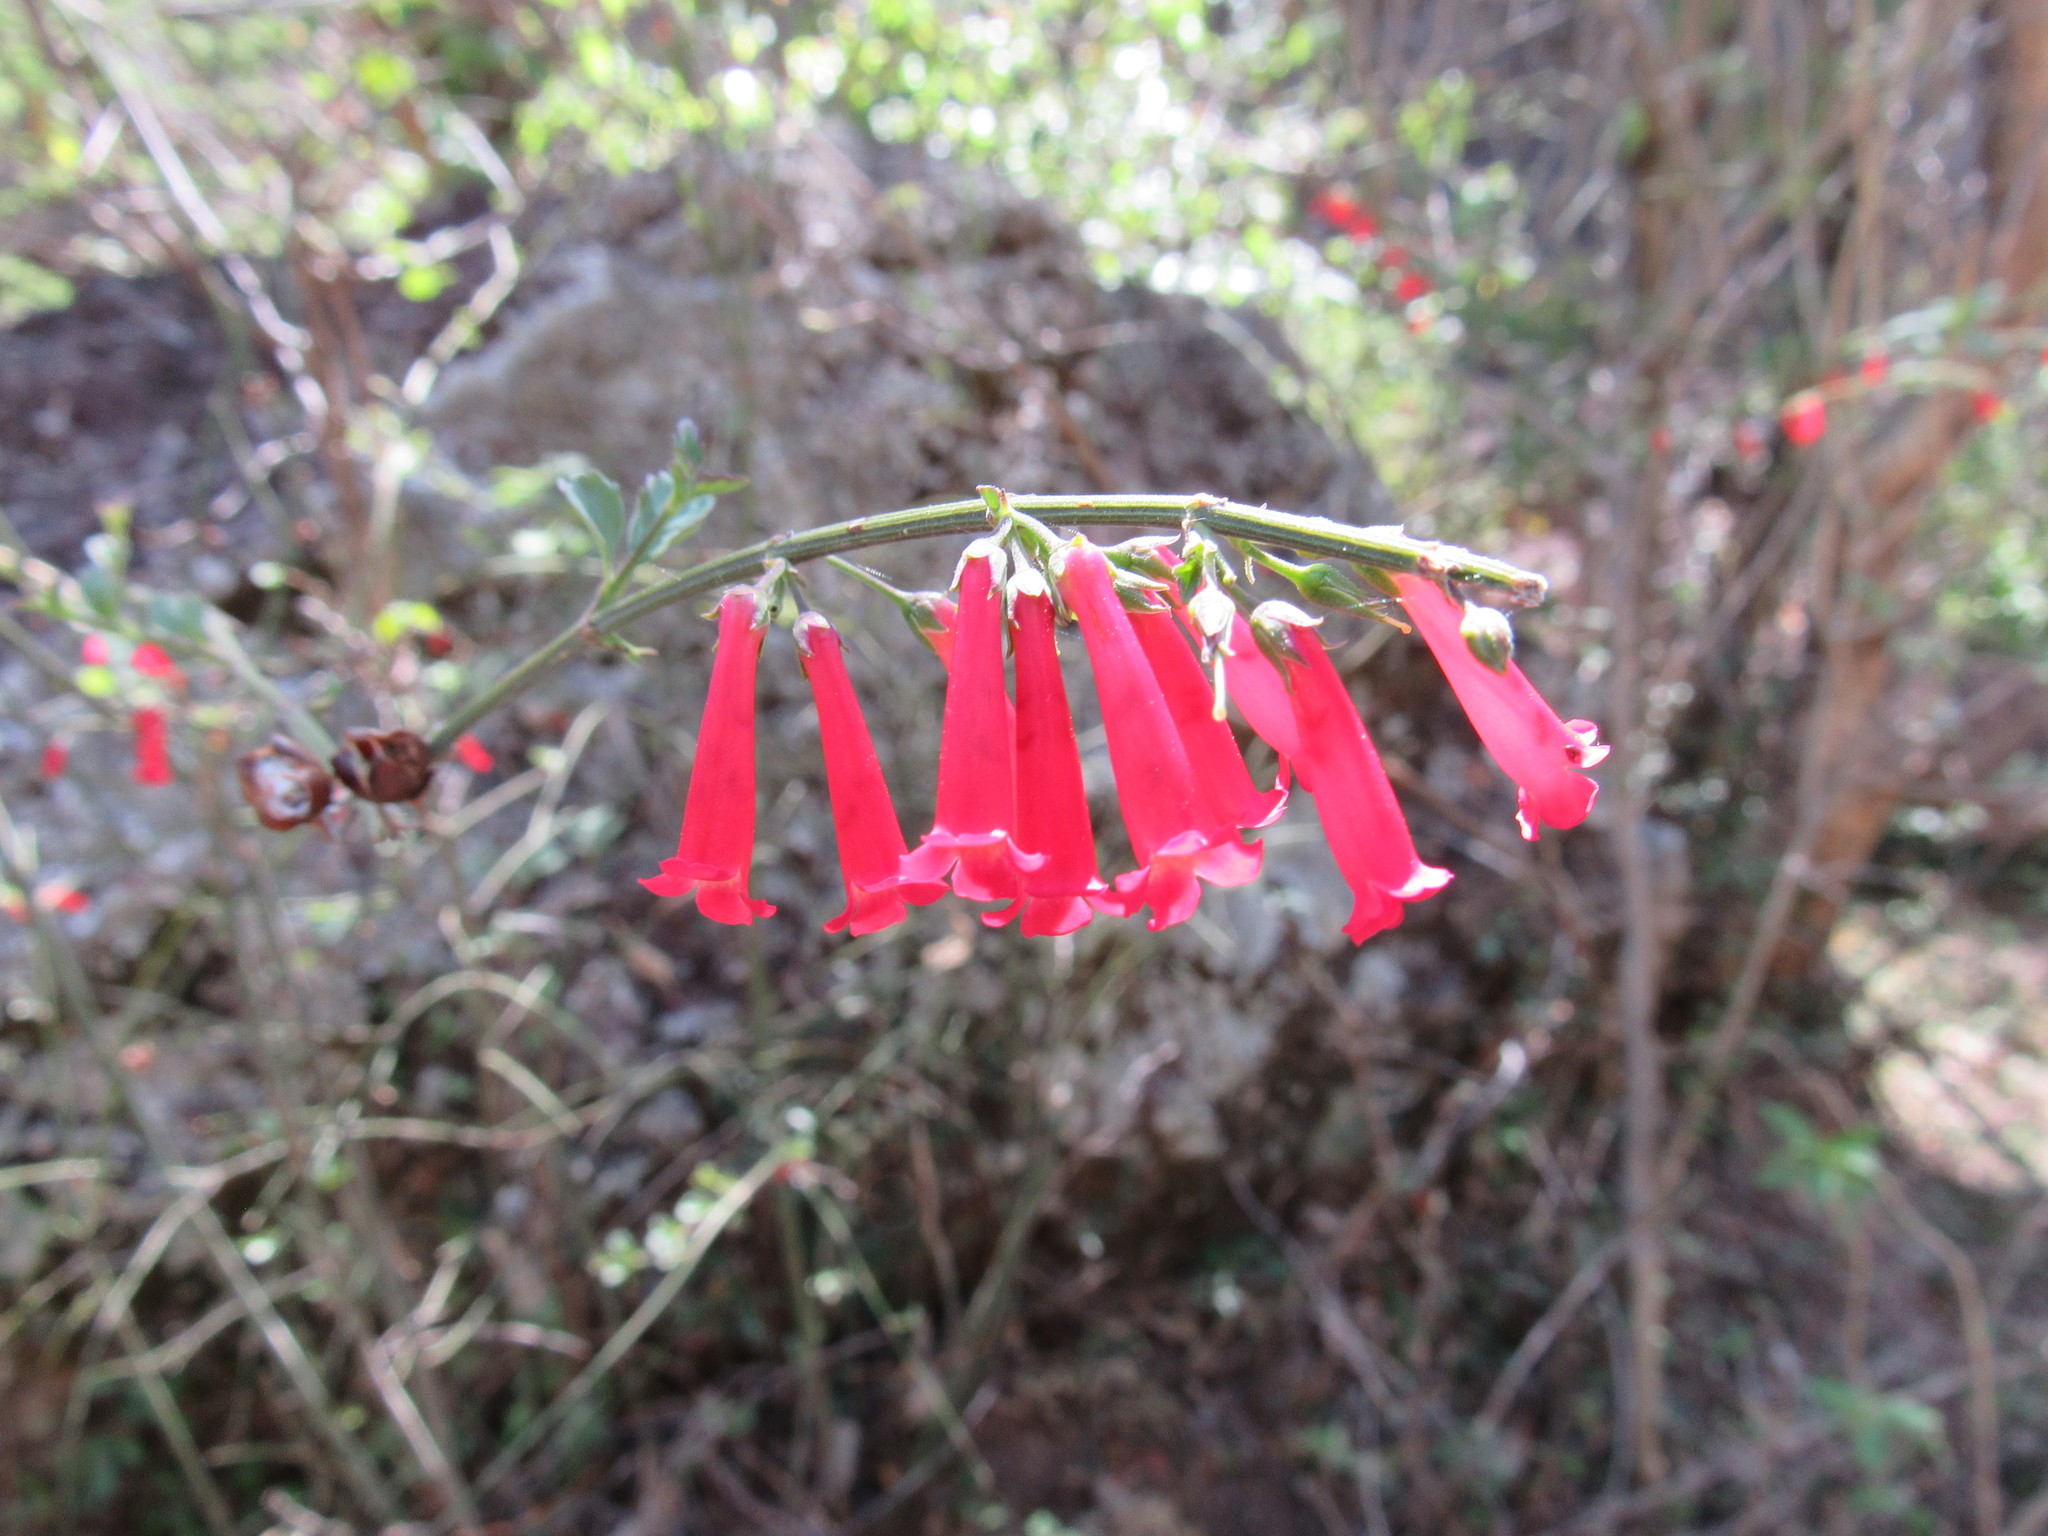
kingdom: Plantae
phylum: Tracheophyta
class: Magnoliopsida
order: Lamiales
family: Plantaginaceae
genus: Russelia
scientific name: Russelia obtusata
